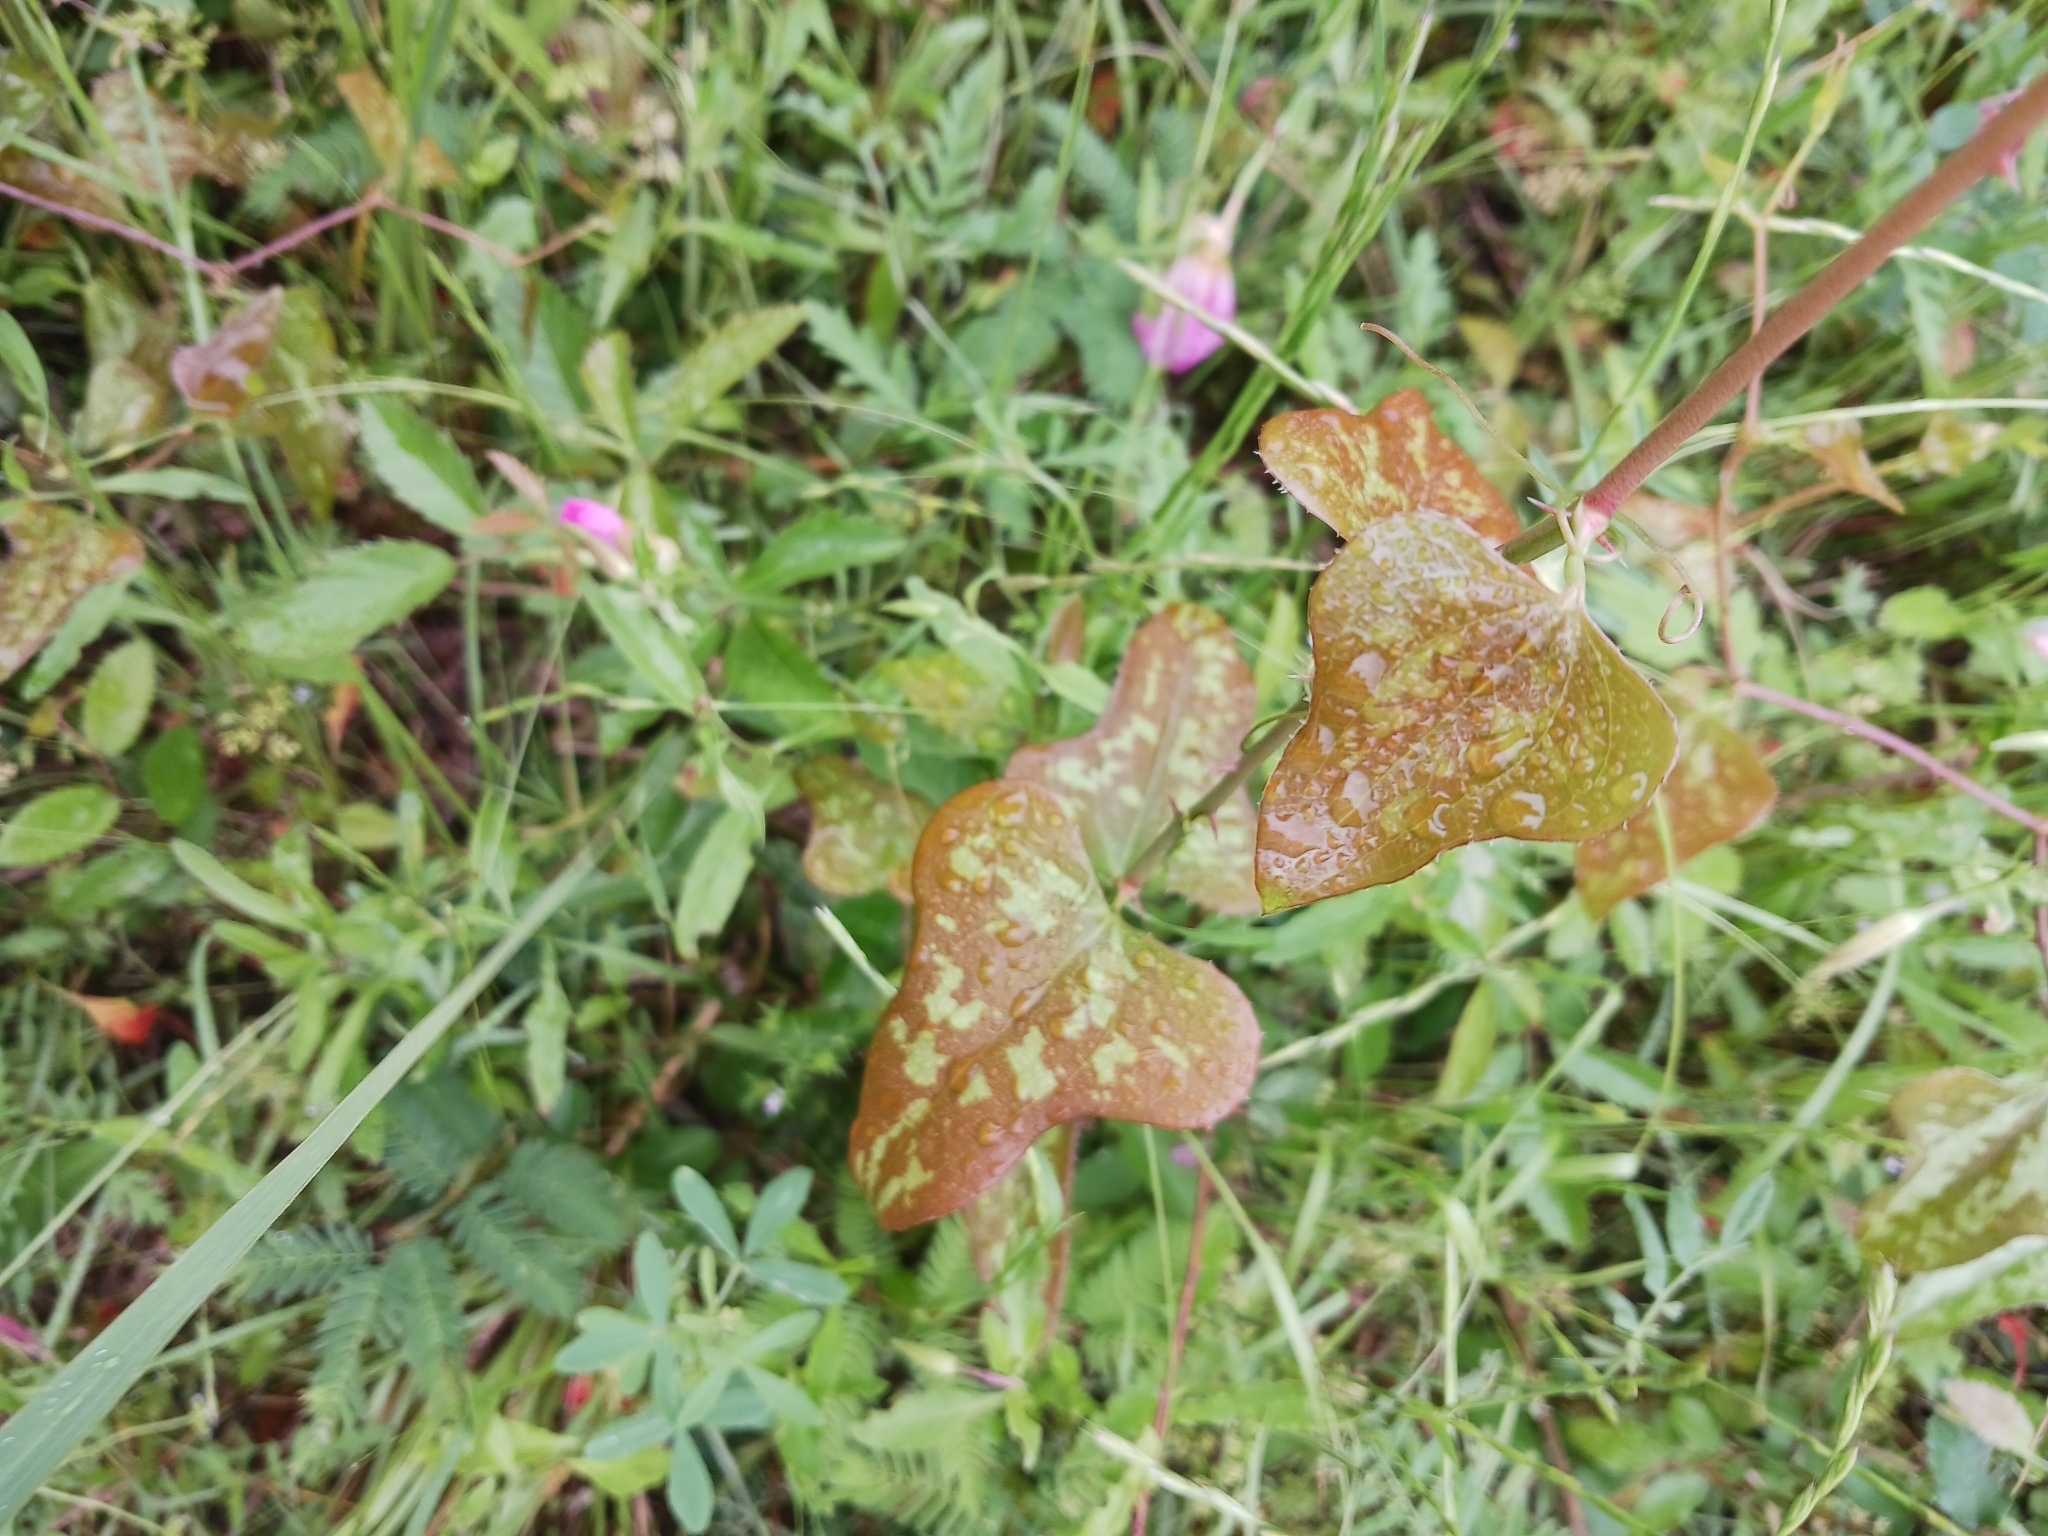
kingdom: Plantae
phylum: Tracheophyta
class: Liliopsida
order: Liliales
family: Smilacaceae
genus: Smilax
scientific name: Smilax bona-nox
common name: Catbrier
